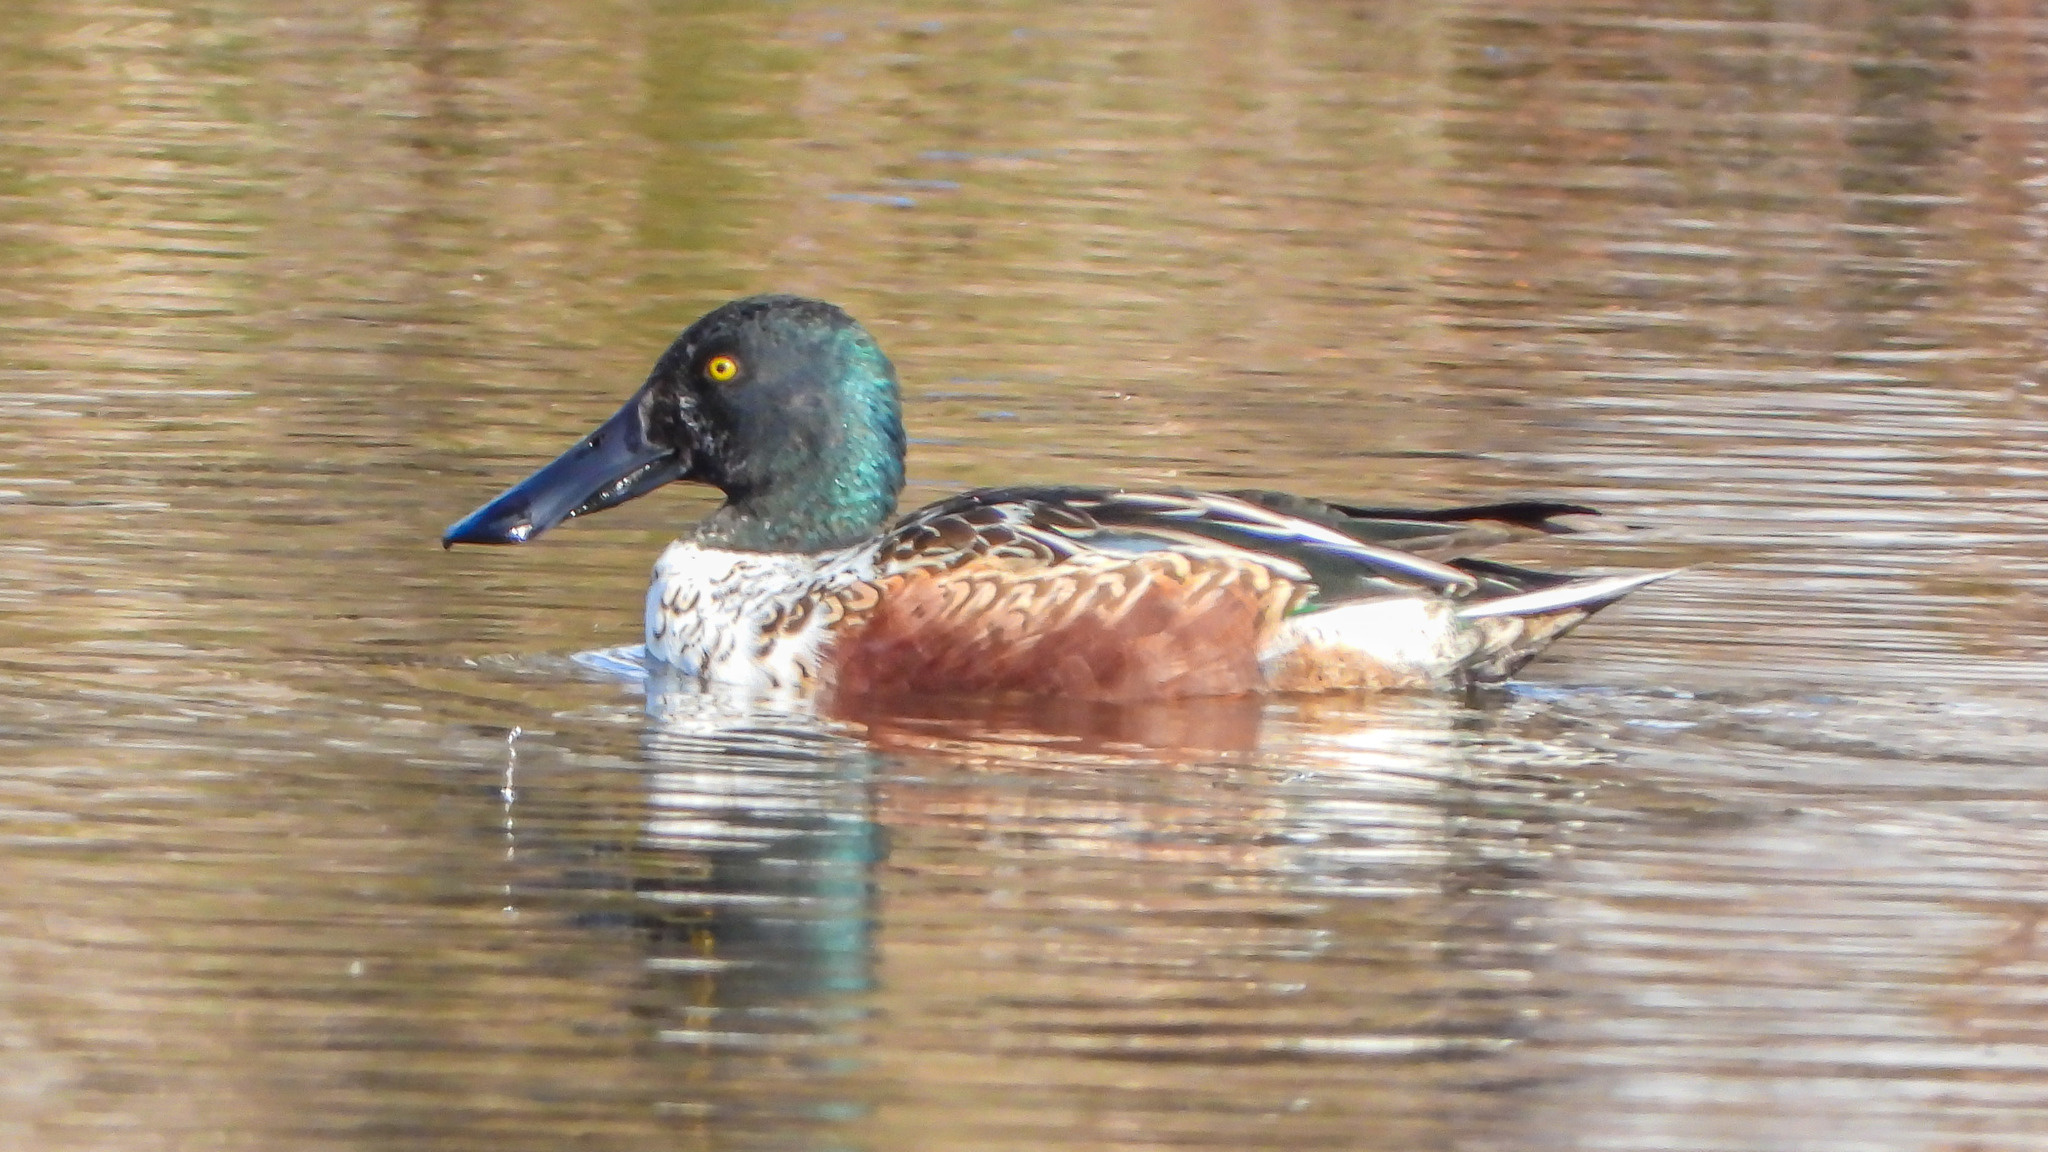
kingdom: Animalia
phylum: Chordata
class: Aves
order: Anseriformes
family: Anatidae
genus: Spatula
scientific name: Spatula clypeata
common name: Northern shoveler
